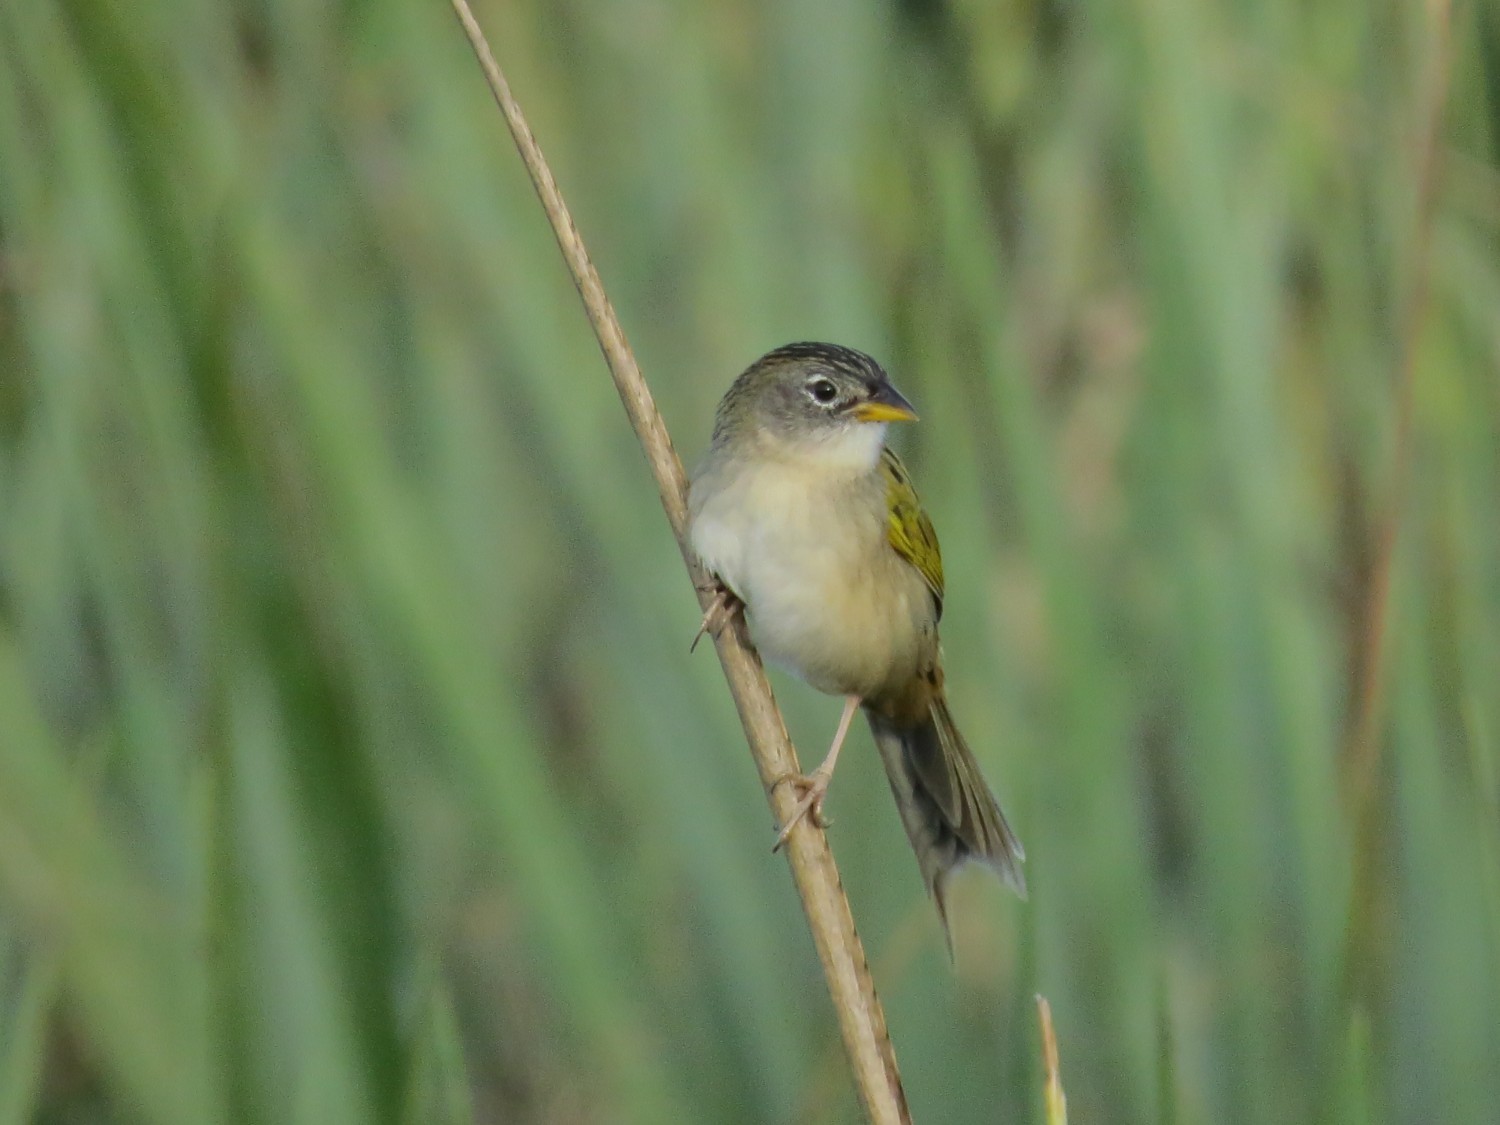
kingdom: Animalia
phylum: Chordata
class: Aves
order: Passeriformes
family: Thraupidae
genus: Emberizoides
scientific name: Emberizoides ypiranganus
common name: Lesser grass finch
